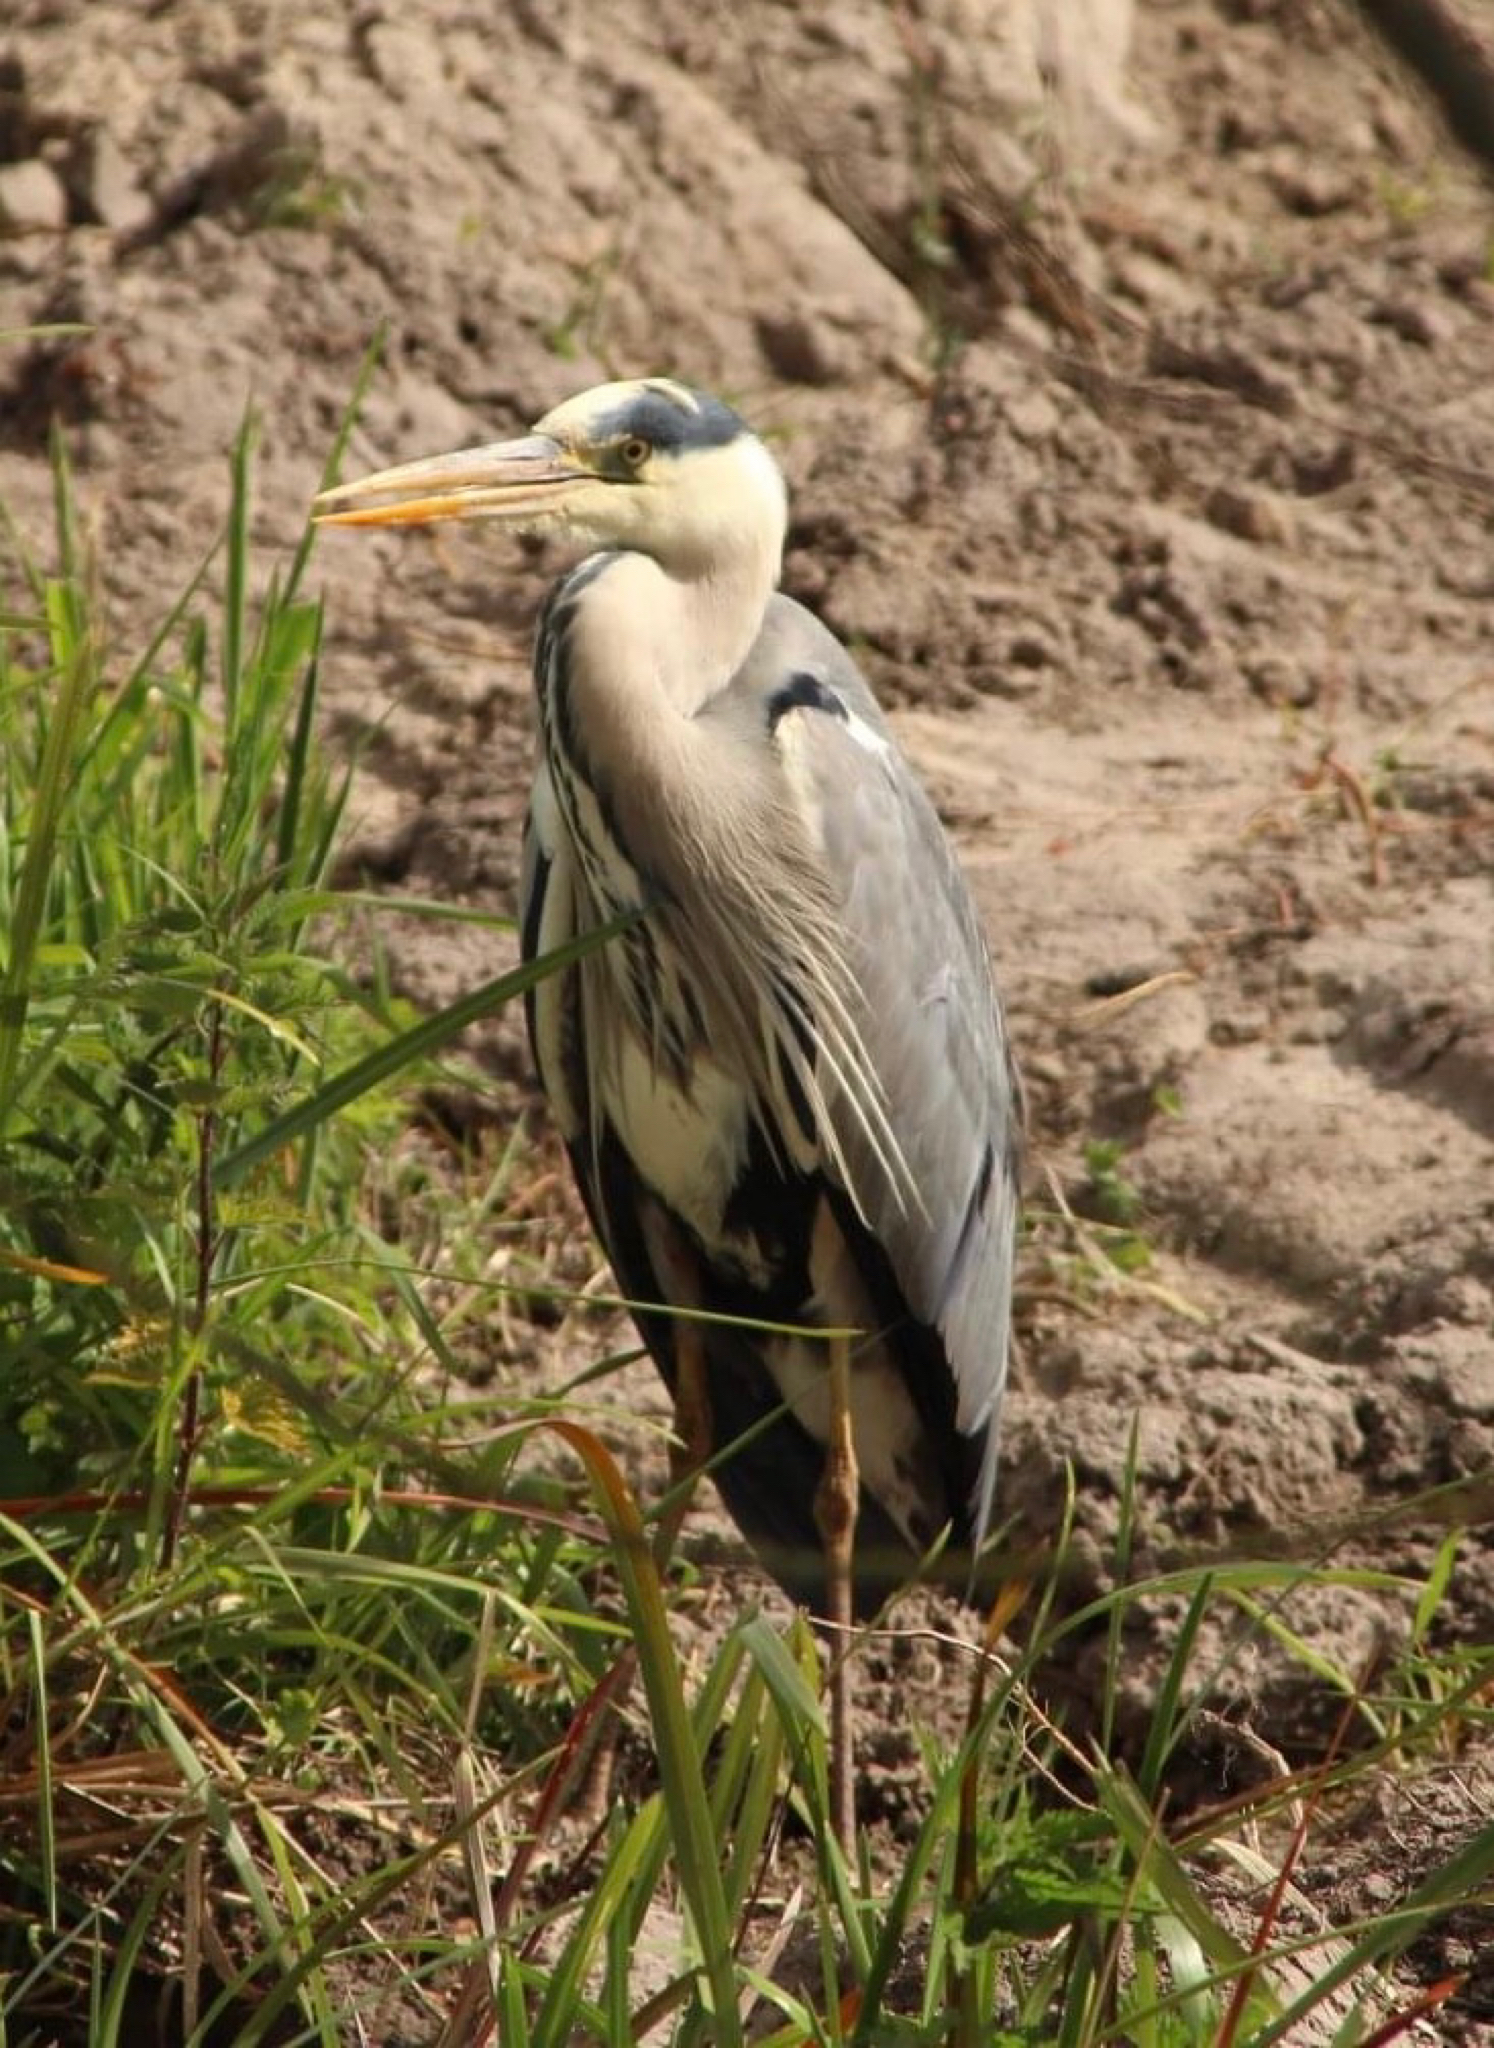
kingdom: Animalia
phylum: Chordata
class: Aves
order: Pelecaniformes
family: Ardeidae
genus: Ardea
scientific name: Ardea cinerea
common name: Grey heron
